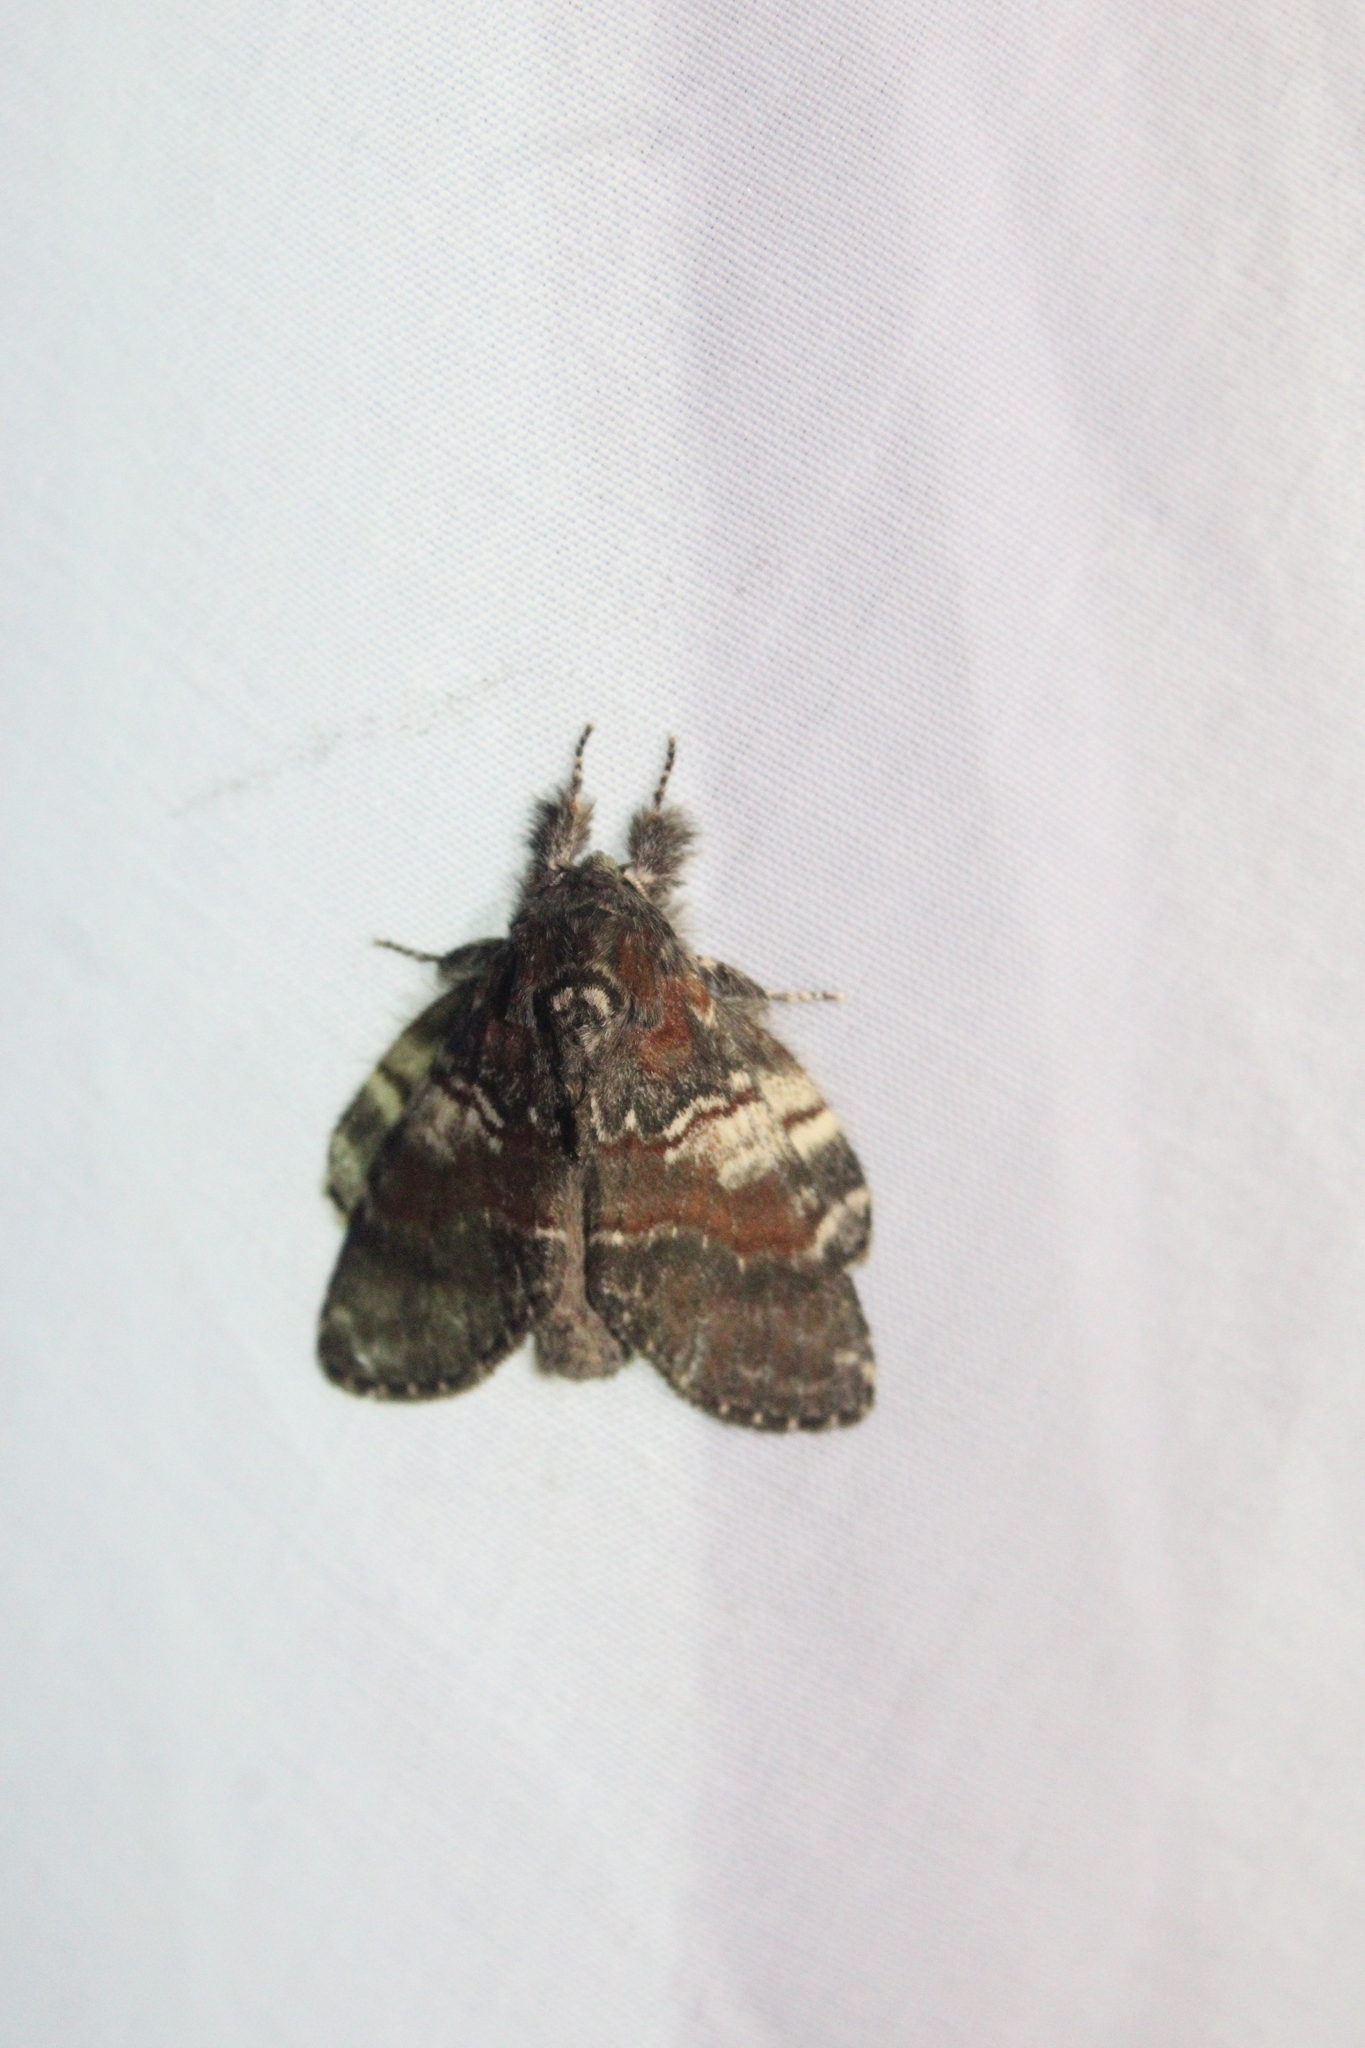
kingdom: Animalia
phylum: Arthropoda
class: Insecta
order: Lepidoptera
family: Notodontidae
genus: Peridea
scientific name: Peridea ferruginea
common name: Chocolate prominent
